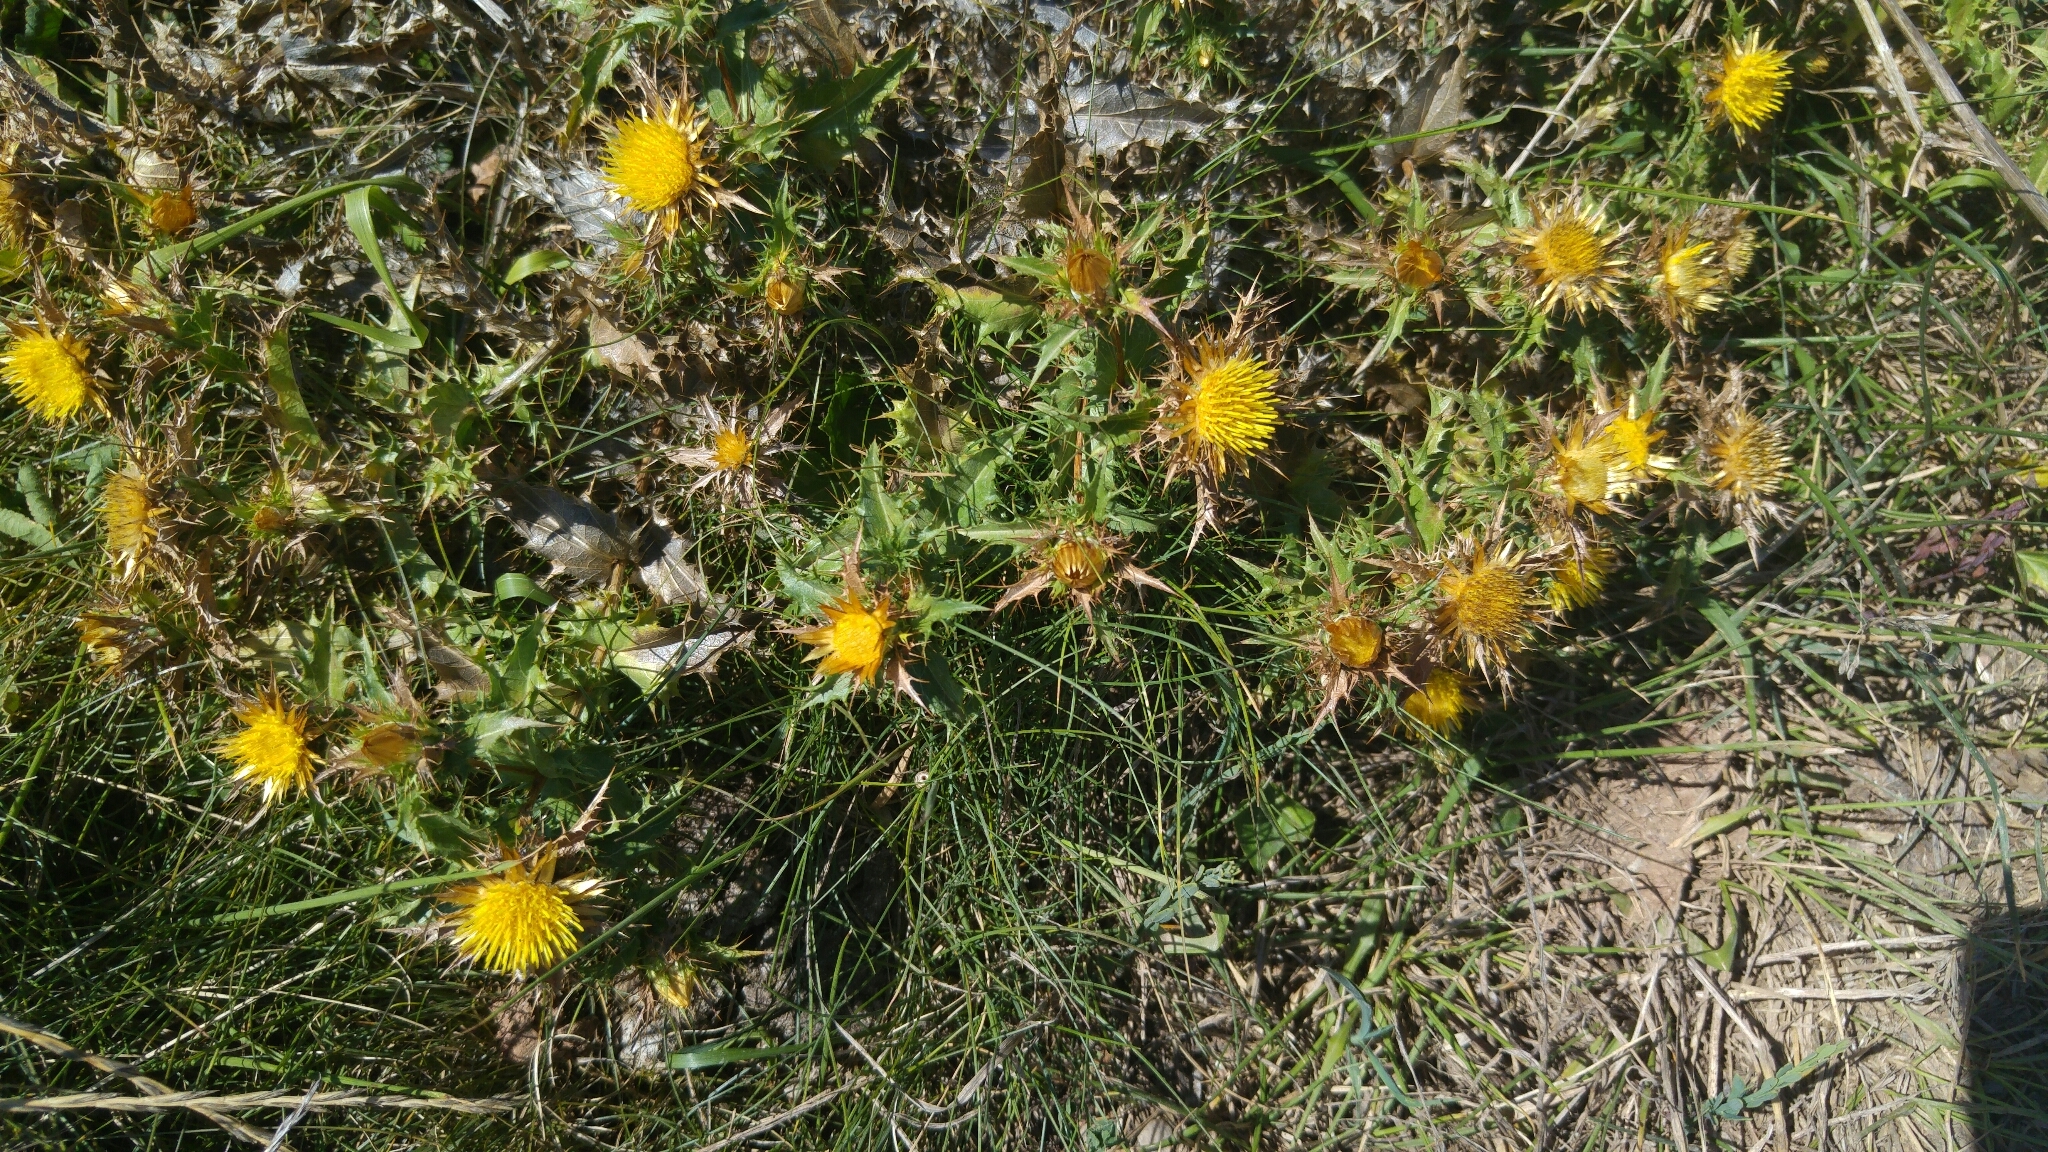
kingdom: Plantae
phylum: Tracheophyta
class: Magnoliopsida
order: Asterales
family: Asteraceae
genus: Carlina
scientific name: Carlina hispanica
